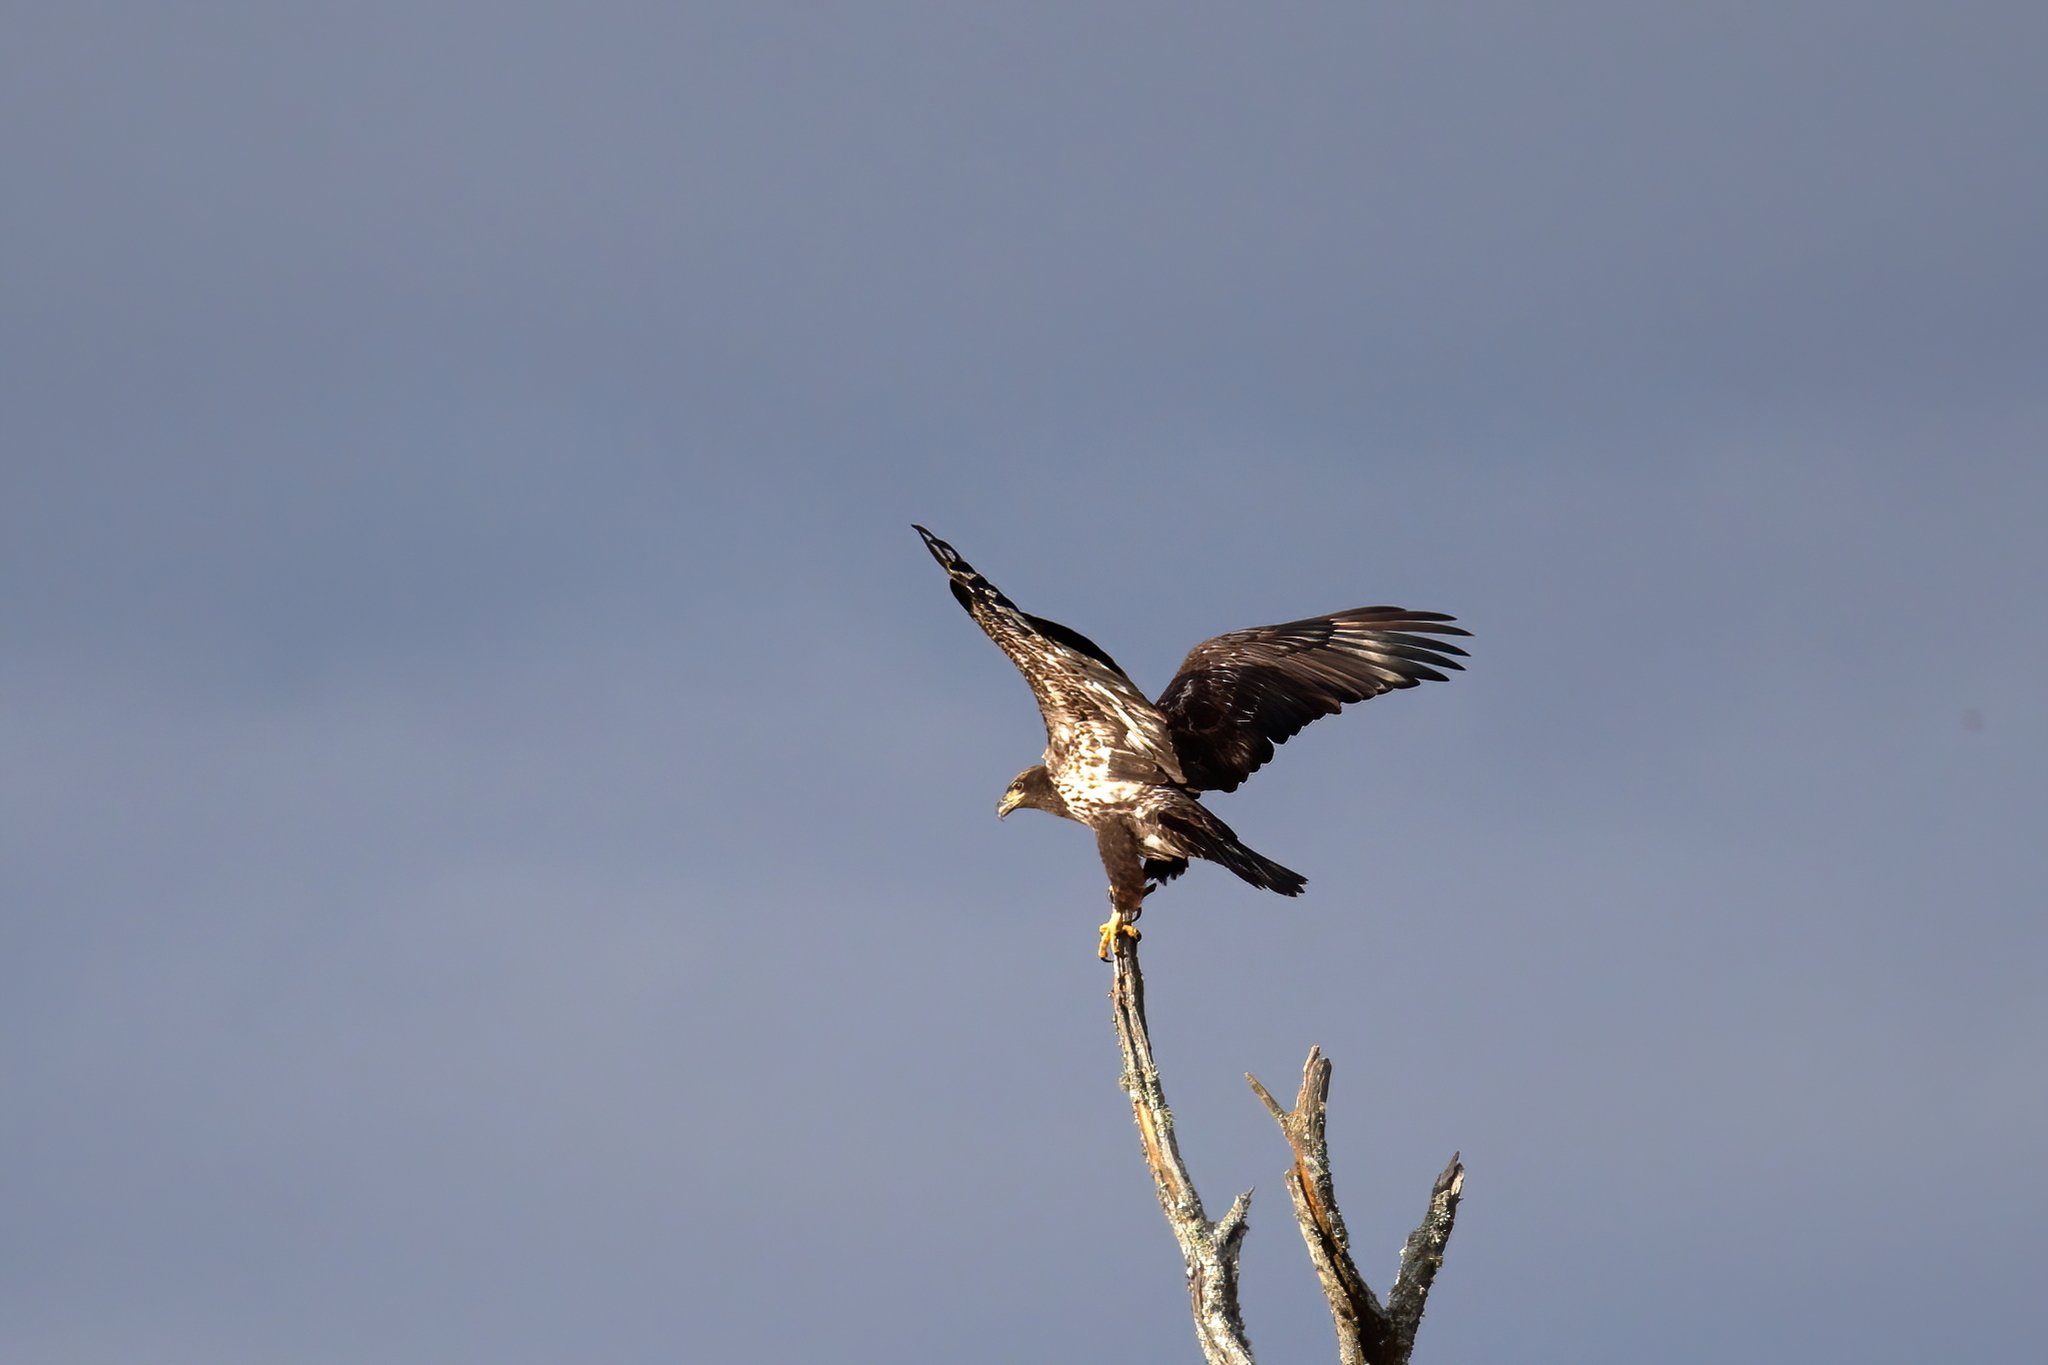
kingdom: Animalia
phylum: Chordata
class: Aves
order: Accipitriformes
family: Accipitridae
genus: Haliaeetus
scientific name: Haliaeetus leucocephalus
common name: Bald eagle
